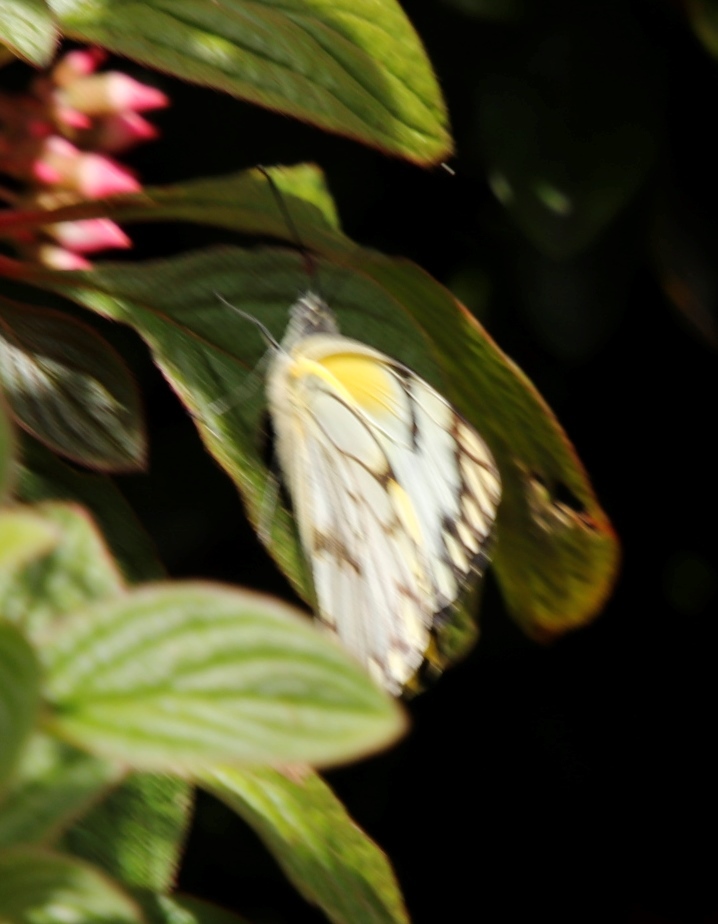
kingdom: Animalia
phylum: Arthropoda
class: Insecta
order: Lepidoptera
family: Pieridae
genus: Belenois
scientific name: Belenois aurota
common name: Brown-veined white
